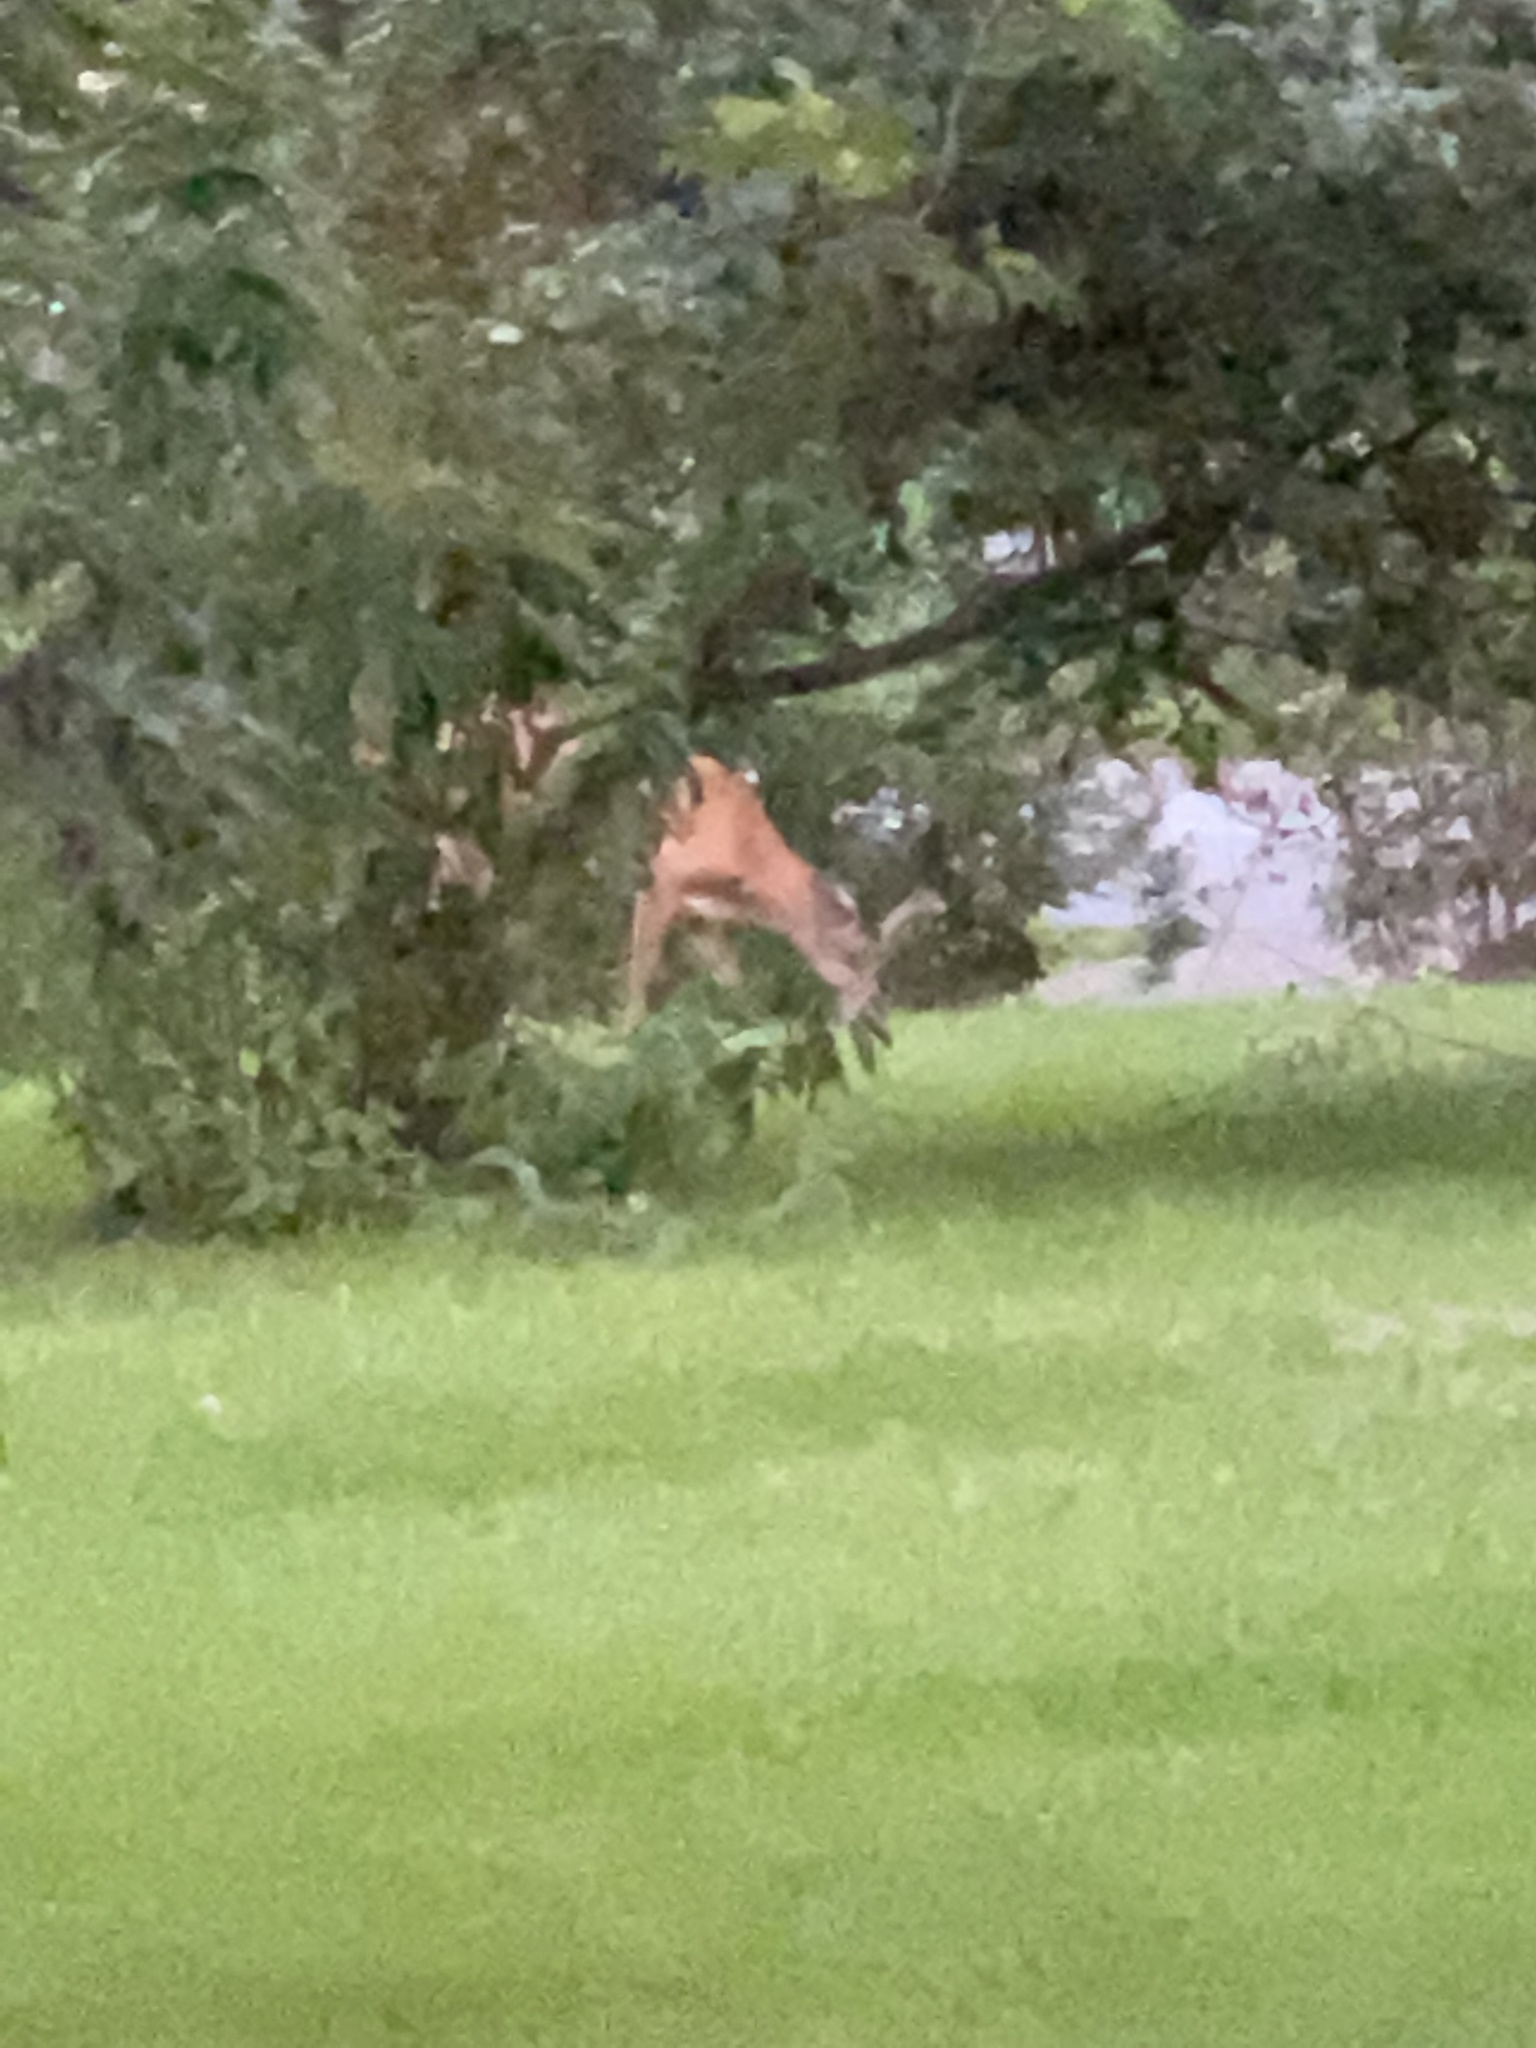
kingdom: Animalia
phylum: Chordata
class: Mammalia
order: Artiodactyla
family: Cervidae
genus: Odocoileus
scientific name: Odocoileus virginianus
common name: White-tailed deer
